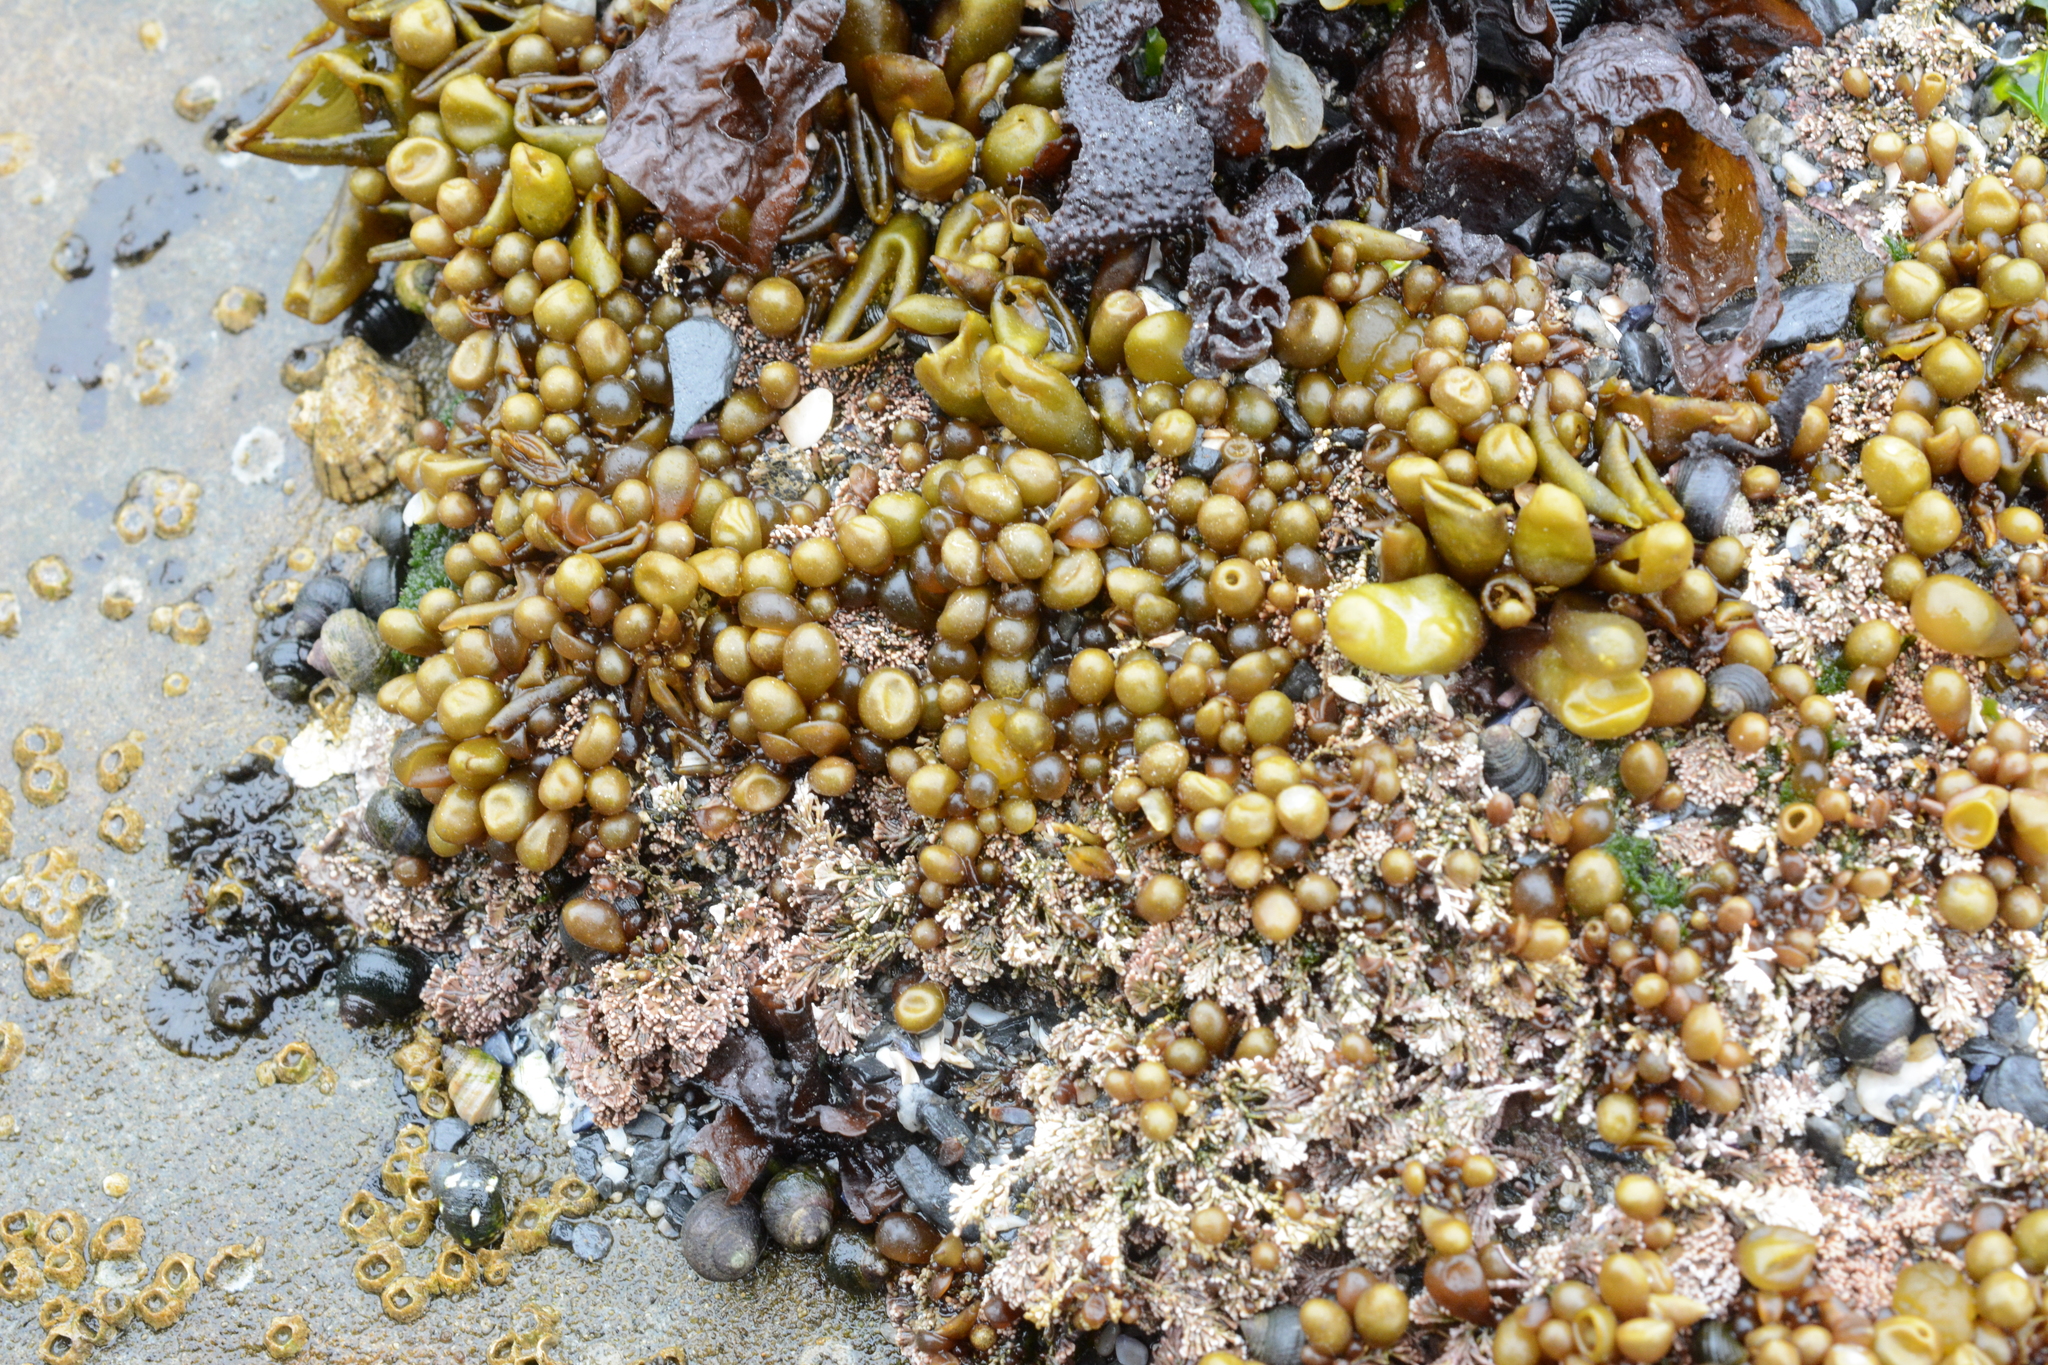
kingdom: Plantae
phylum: Rhodophyta
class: Florideophyceae
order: Palmariales
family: Palmariaceae
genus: Halosaccion
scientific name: Halosaccion glandiforme
